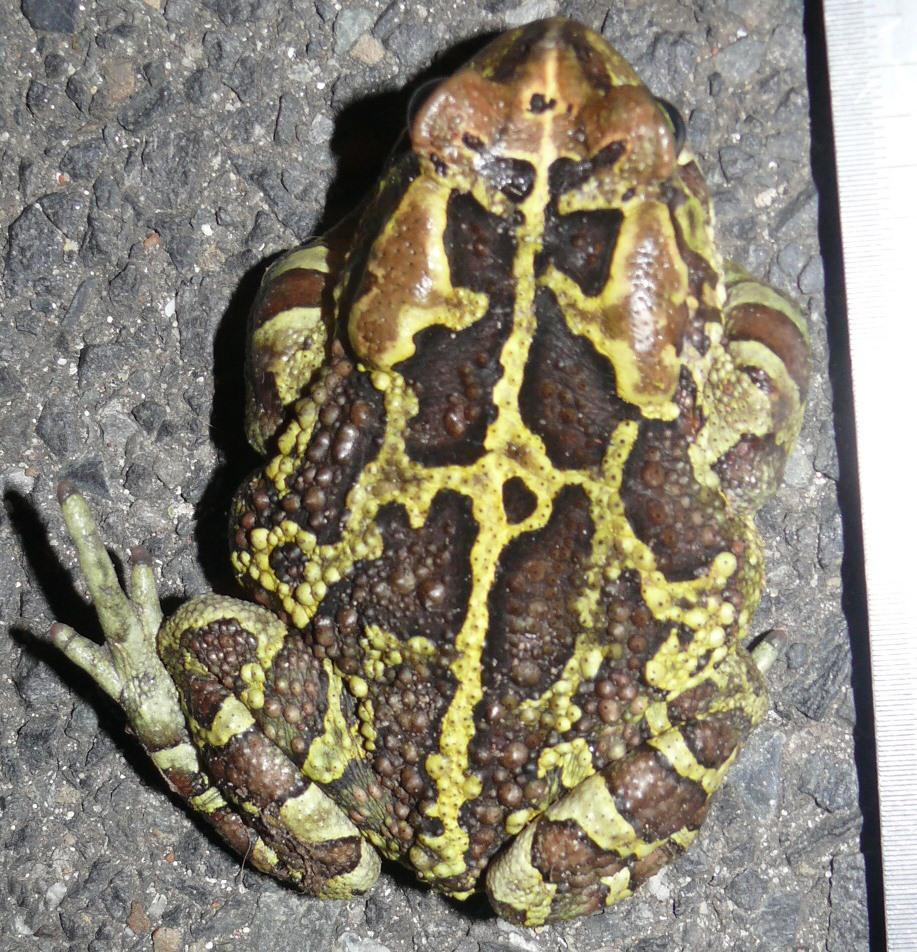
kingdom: Animalia
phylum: Chordata
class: Amphibia
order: Anura
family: Bufonidae
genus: Sclerophrys
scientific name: Sclerophrys pantherina
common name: Panther toad
